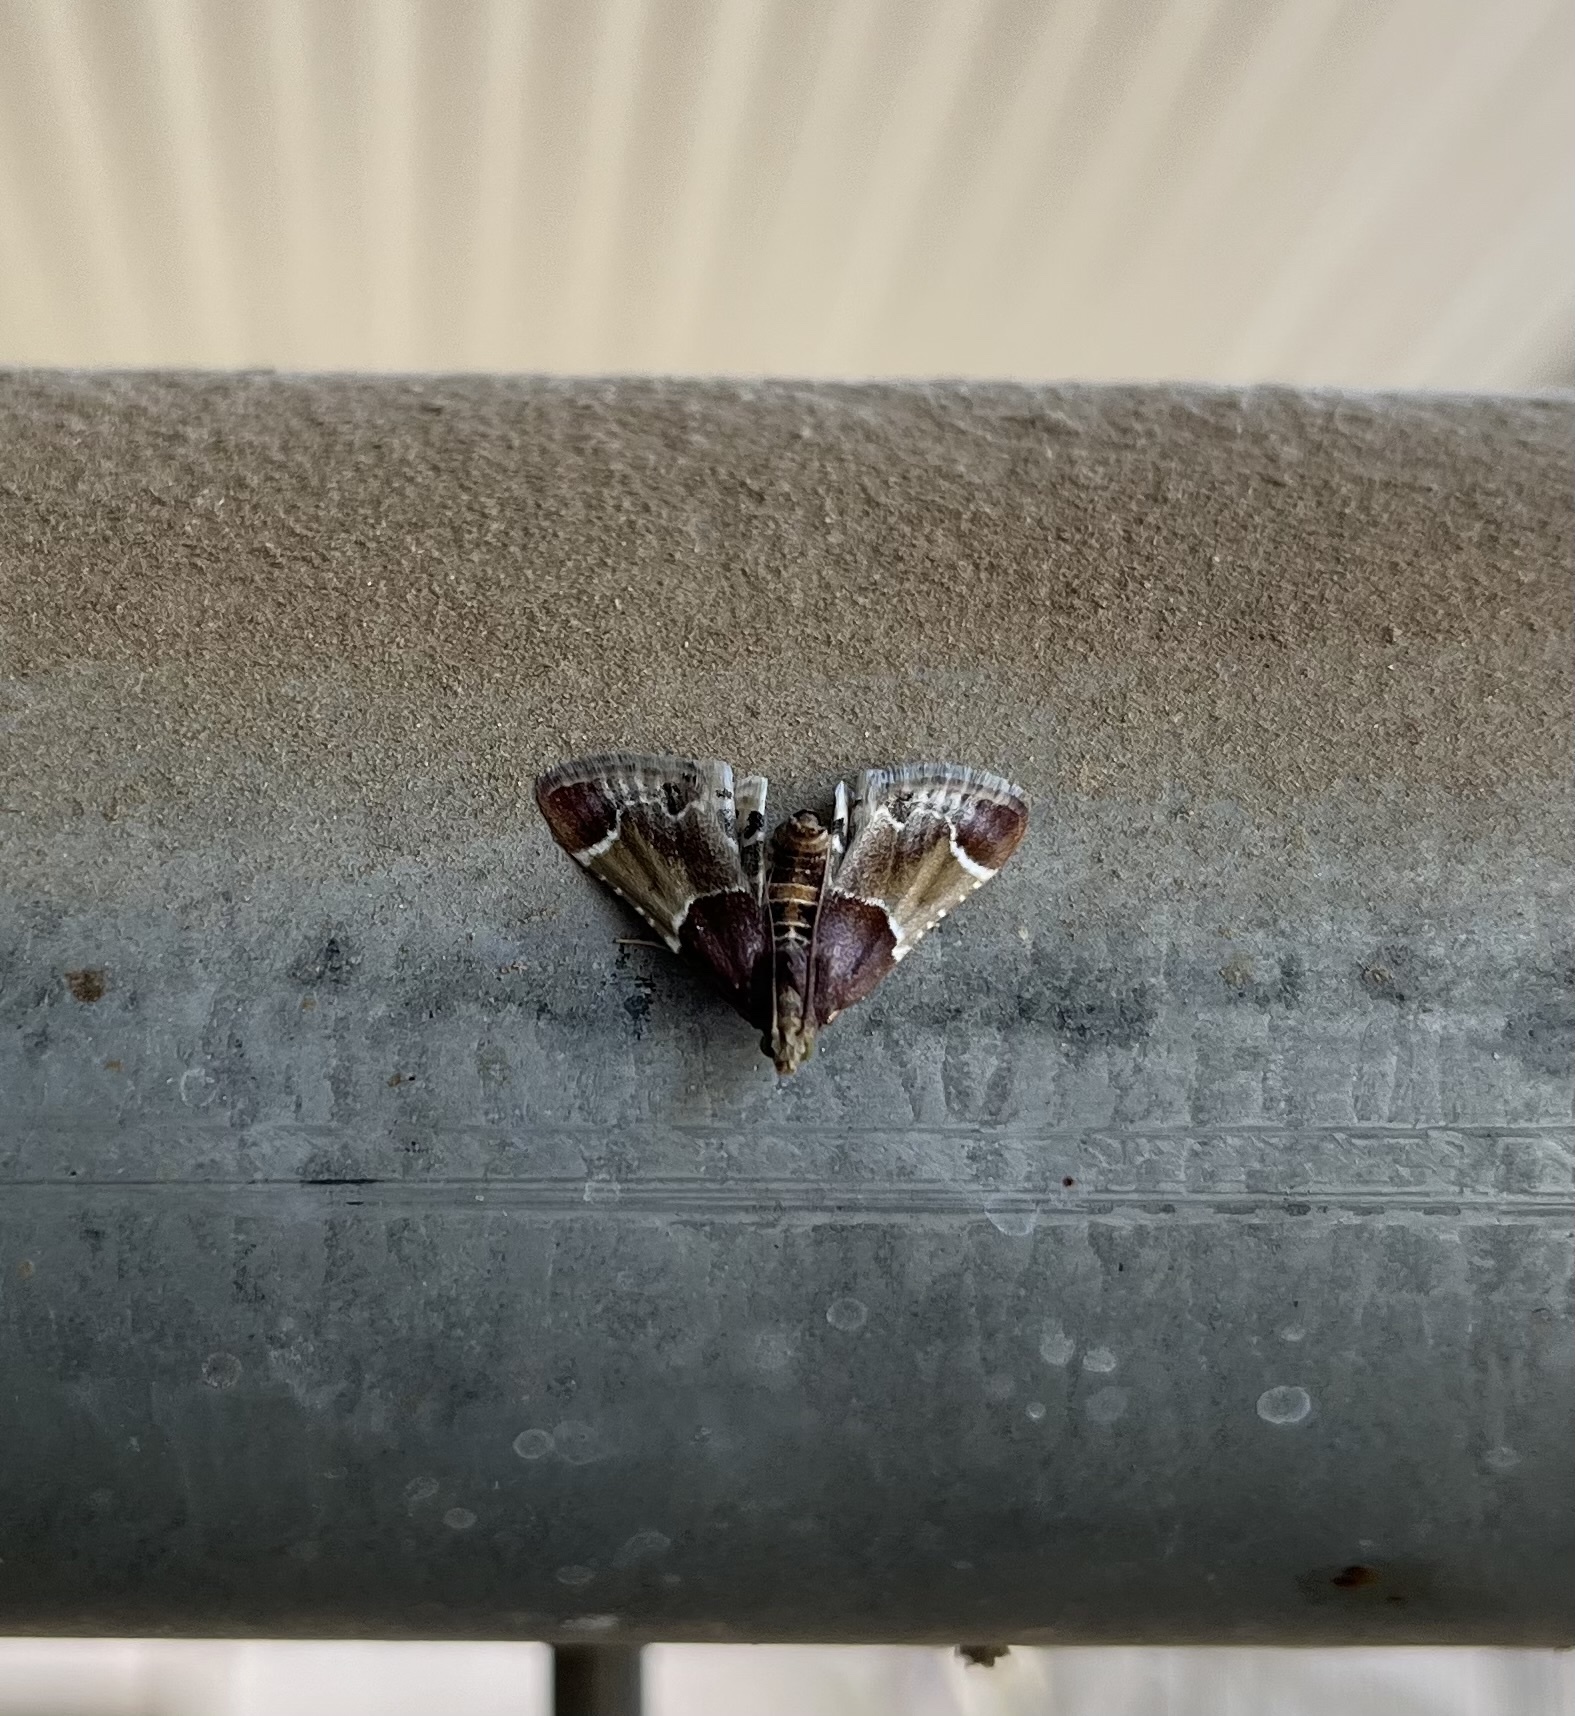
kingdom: Animalia
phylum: Arthropoda
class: Insecta
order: Lepidoptera
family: Pyralidae
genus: Pyralis
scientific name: Pyralis farinalis
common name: Meal moth
